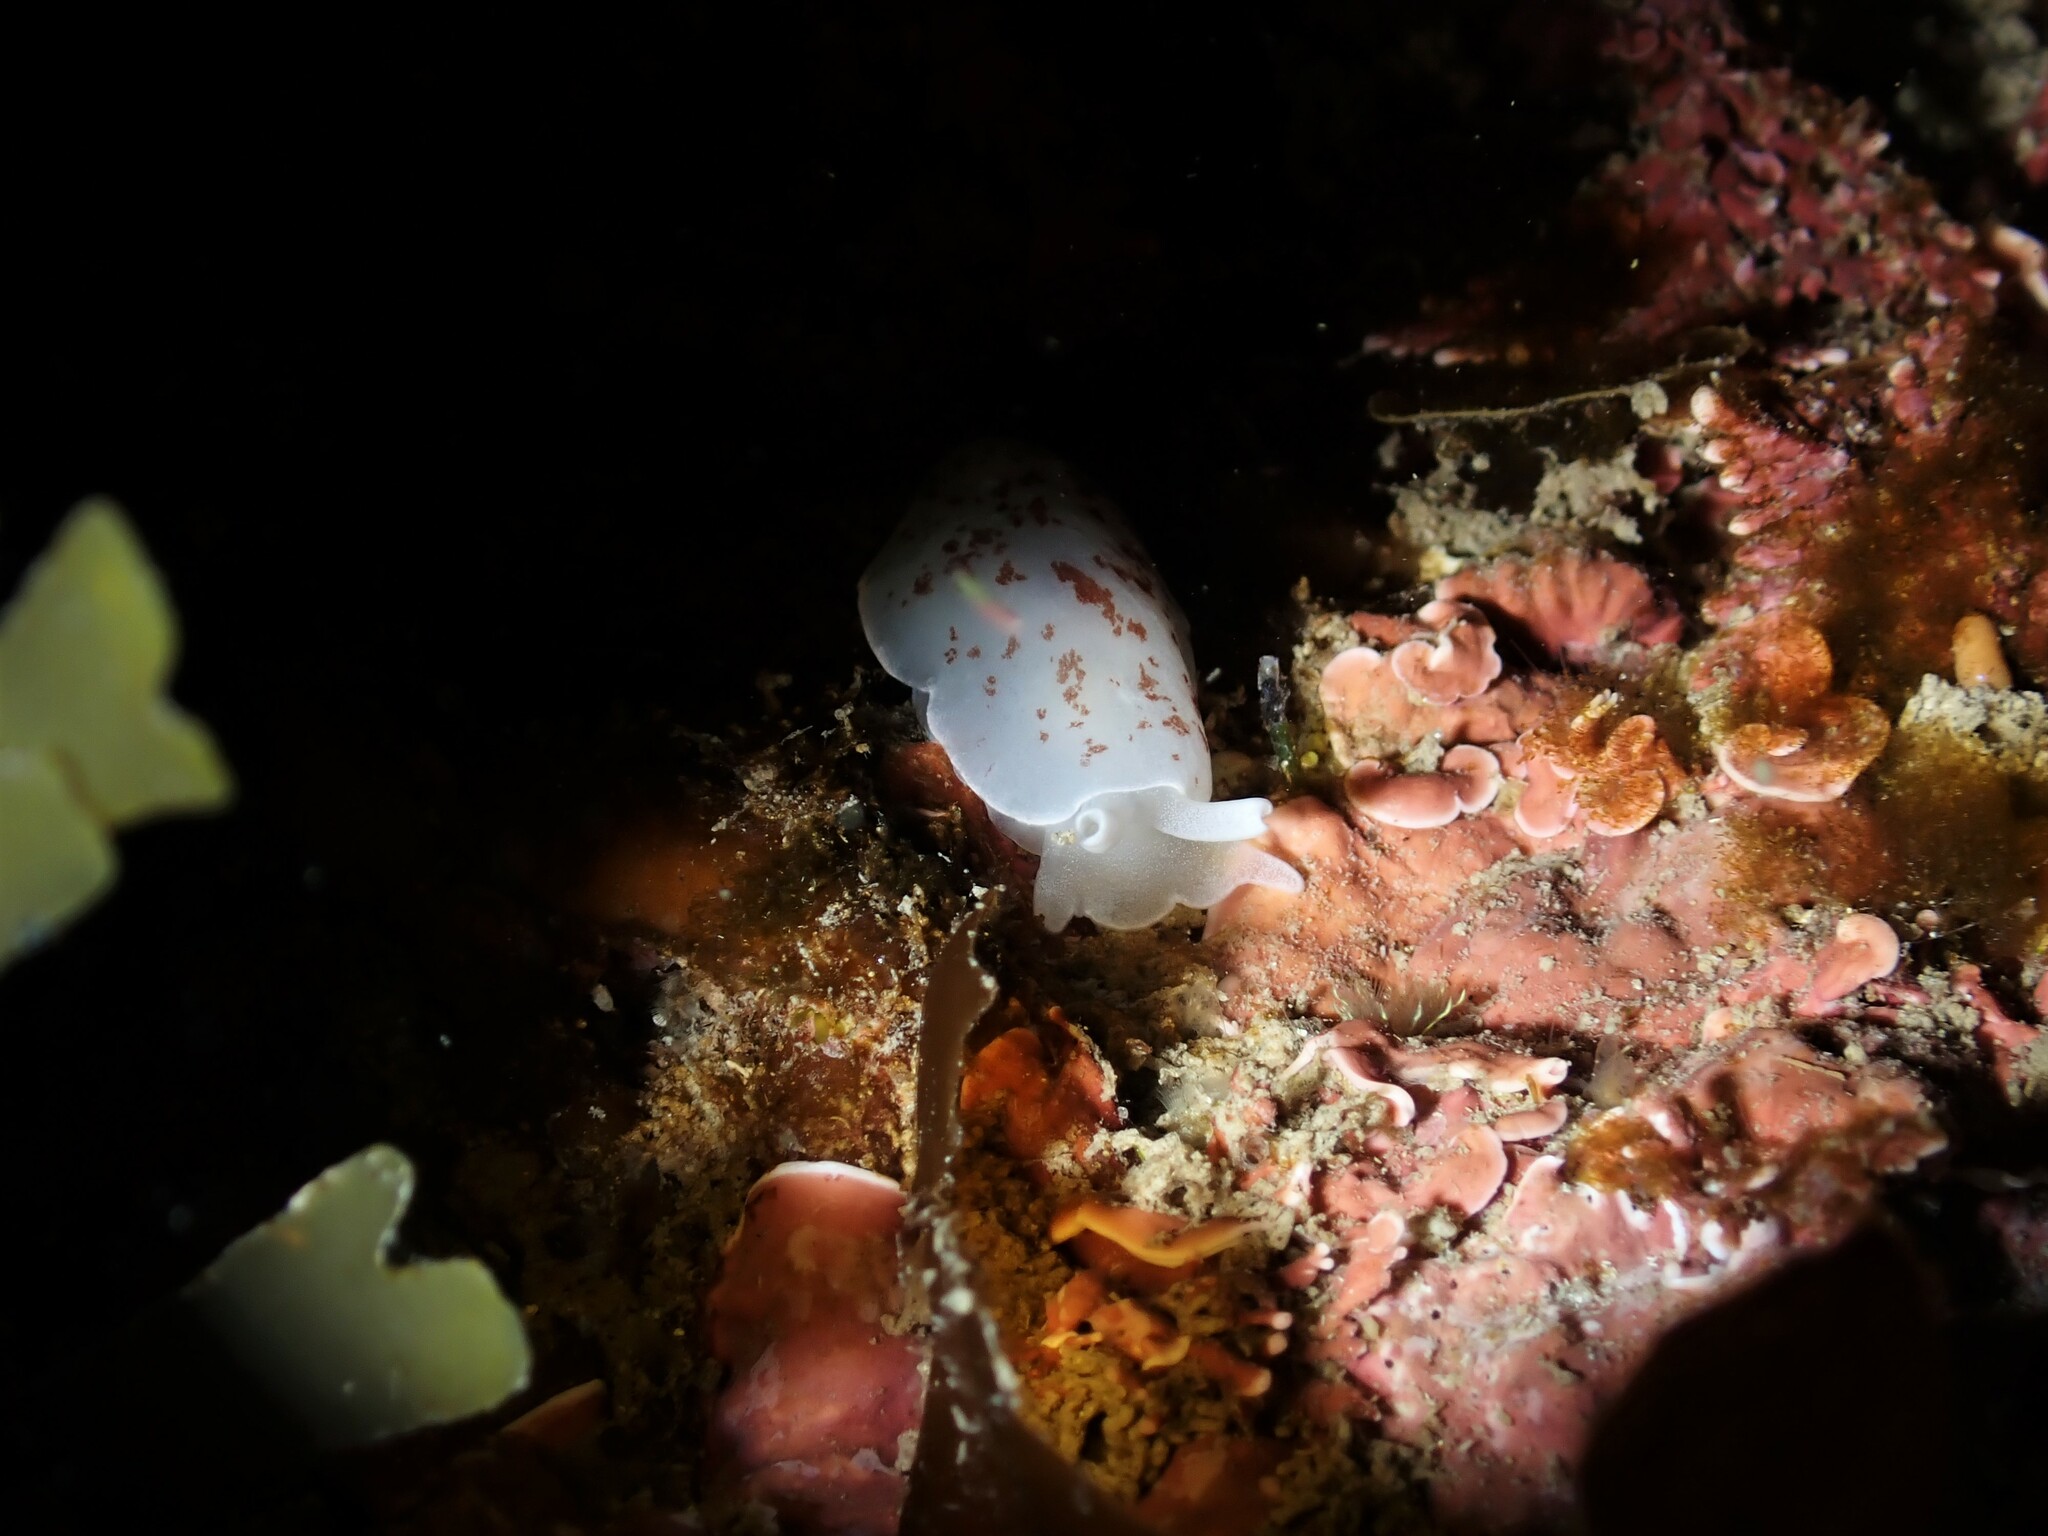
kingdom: Animalia
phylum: Mollusca
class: Gastropoda
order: Pleurobranchida
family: Pleurobranchidae
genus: Berthella
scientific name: Berthella ornata
